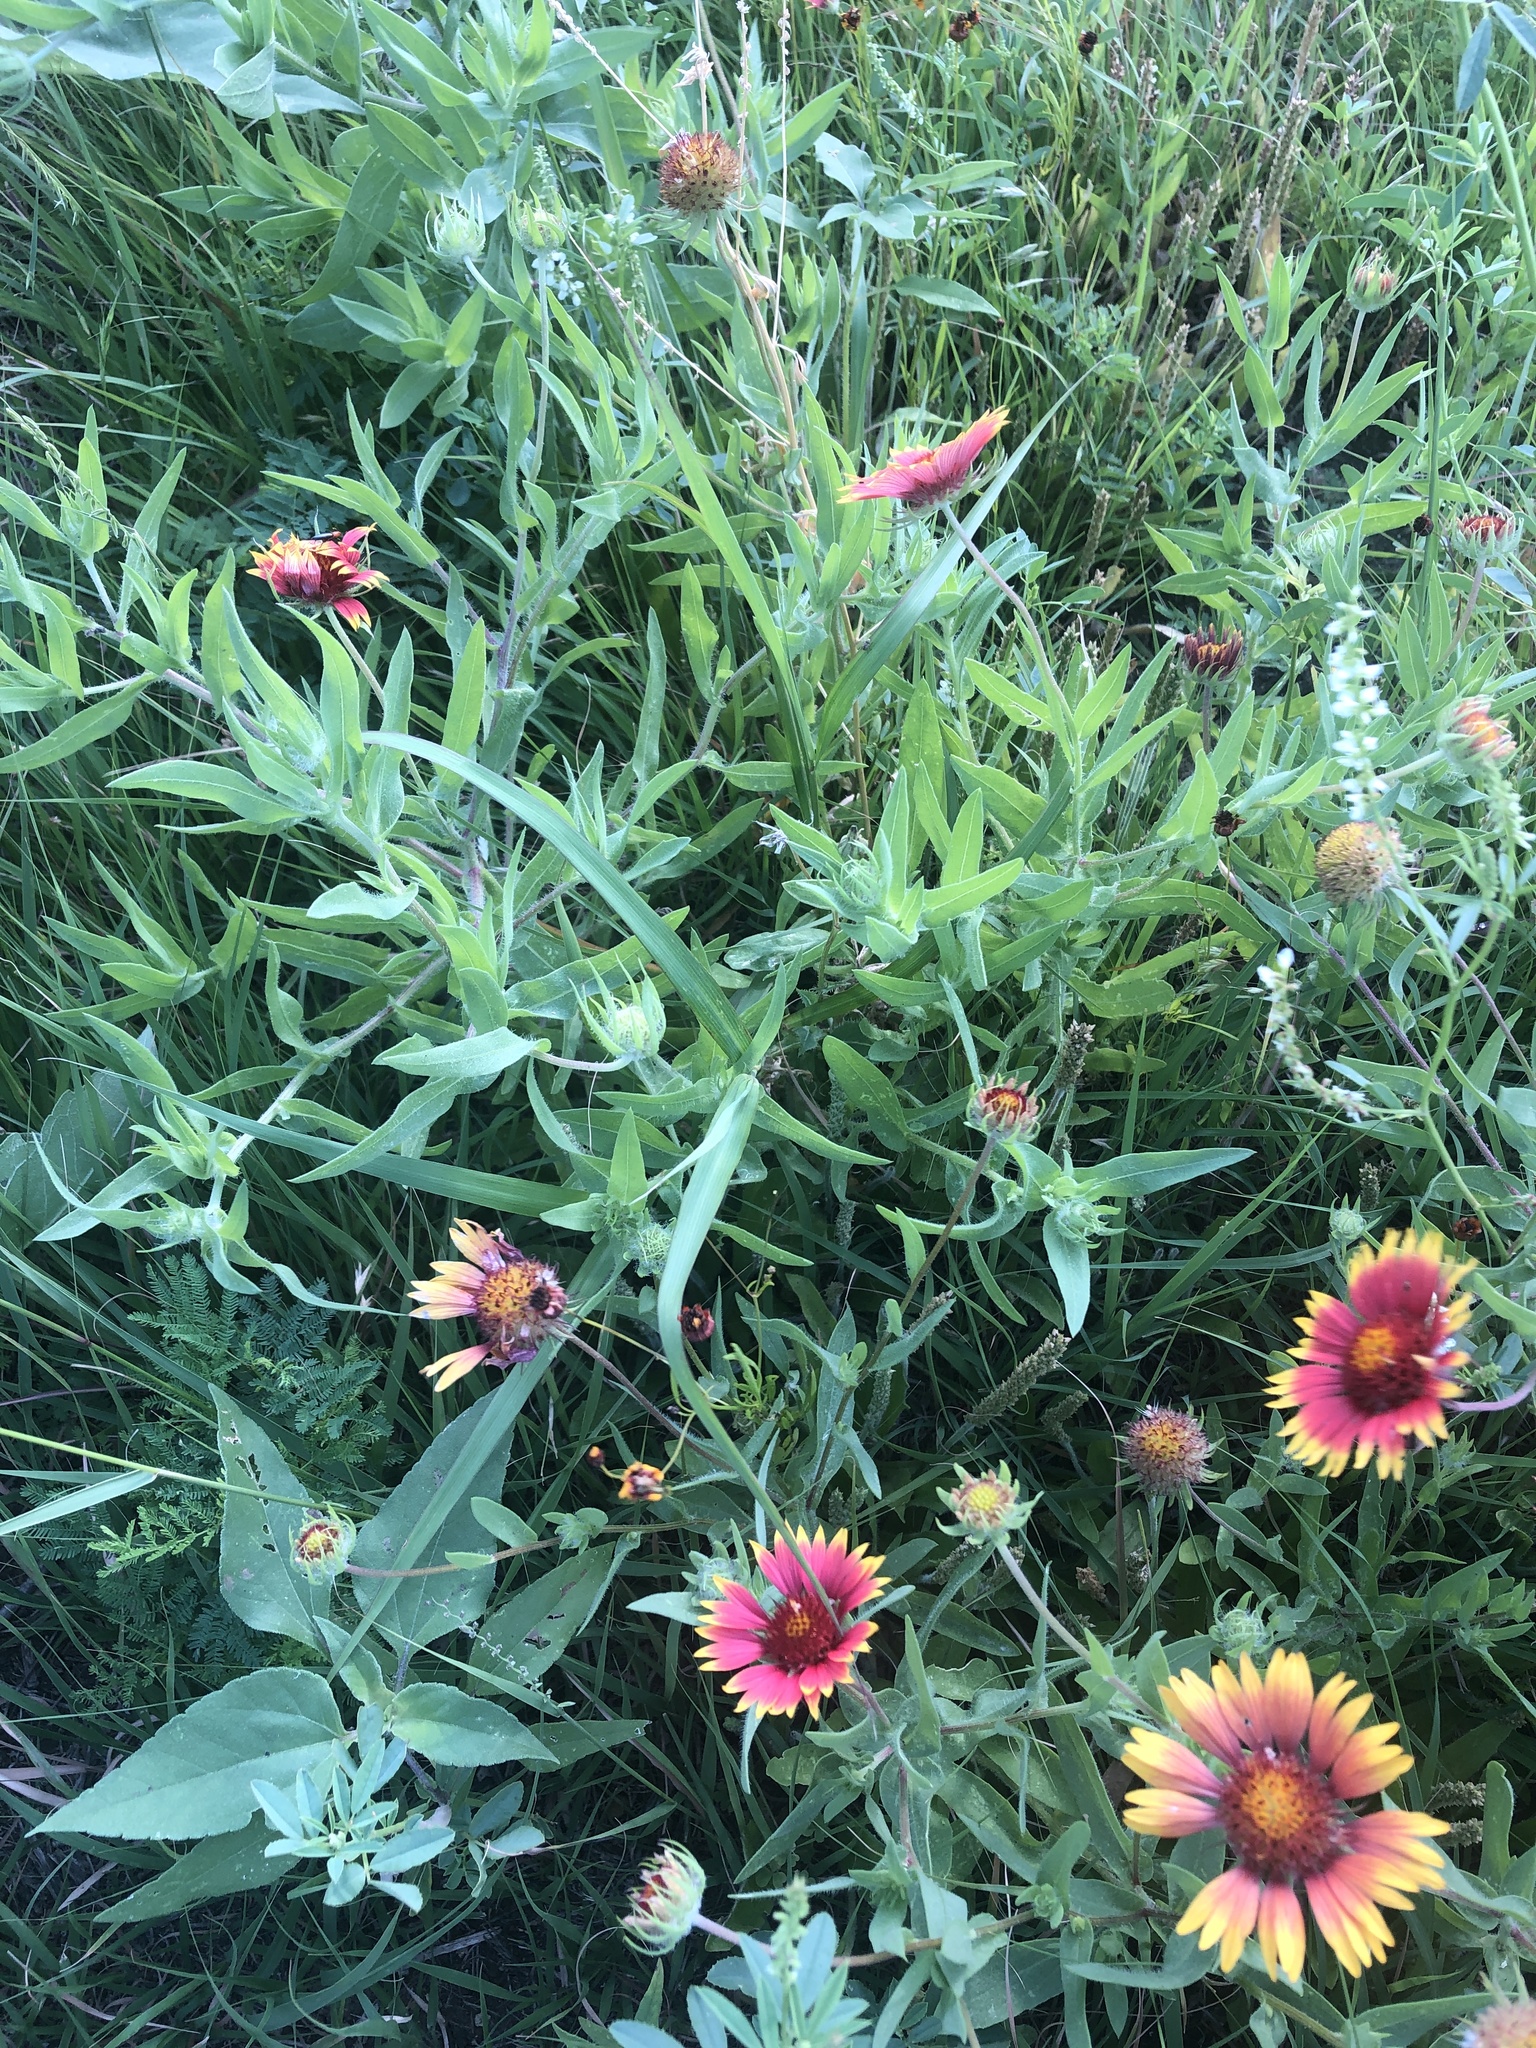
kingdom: Plantae
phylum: Tracheophyta
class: Magnoliopsida
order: Asterales
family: Asteraceae
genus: Gaillardia
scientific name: Gaillardia pulchella
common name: Firewheel
